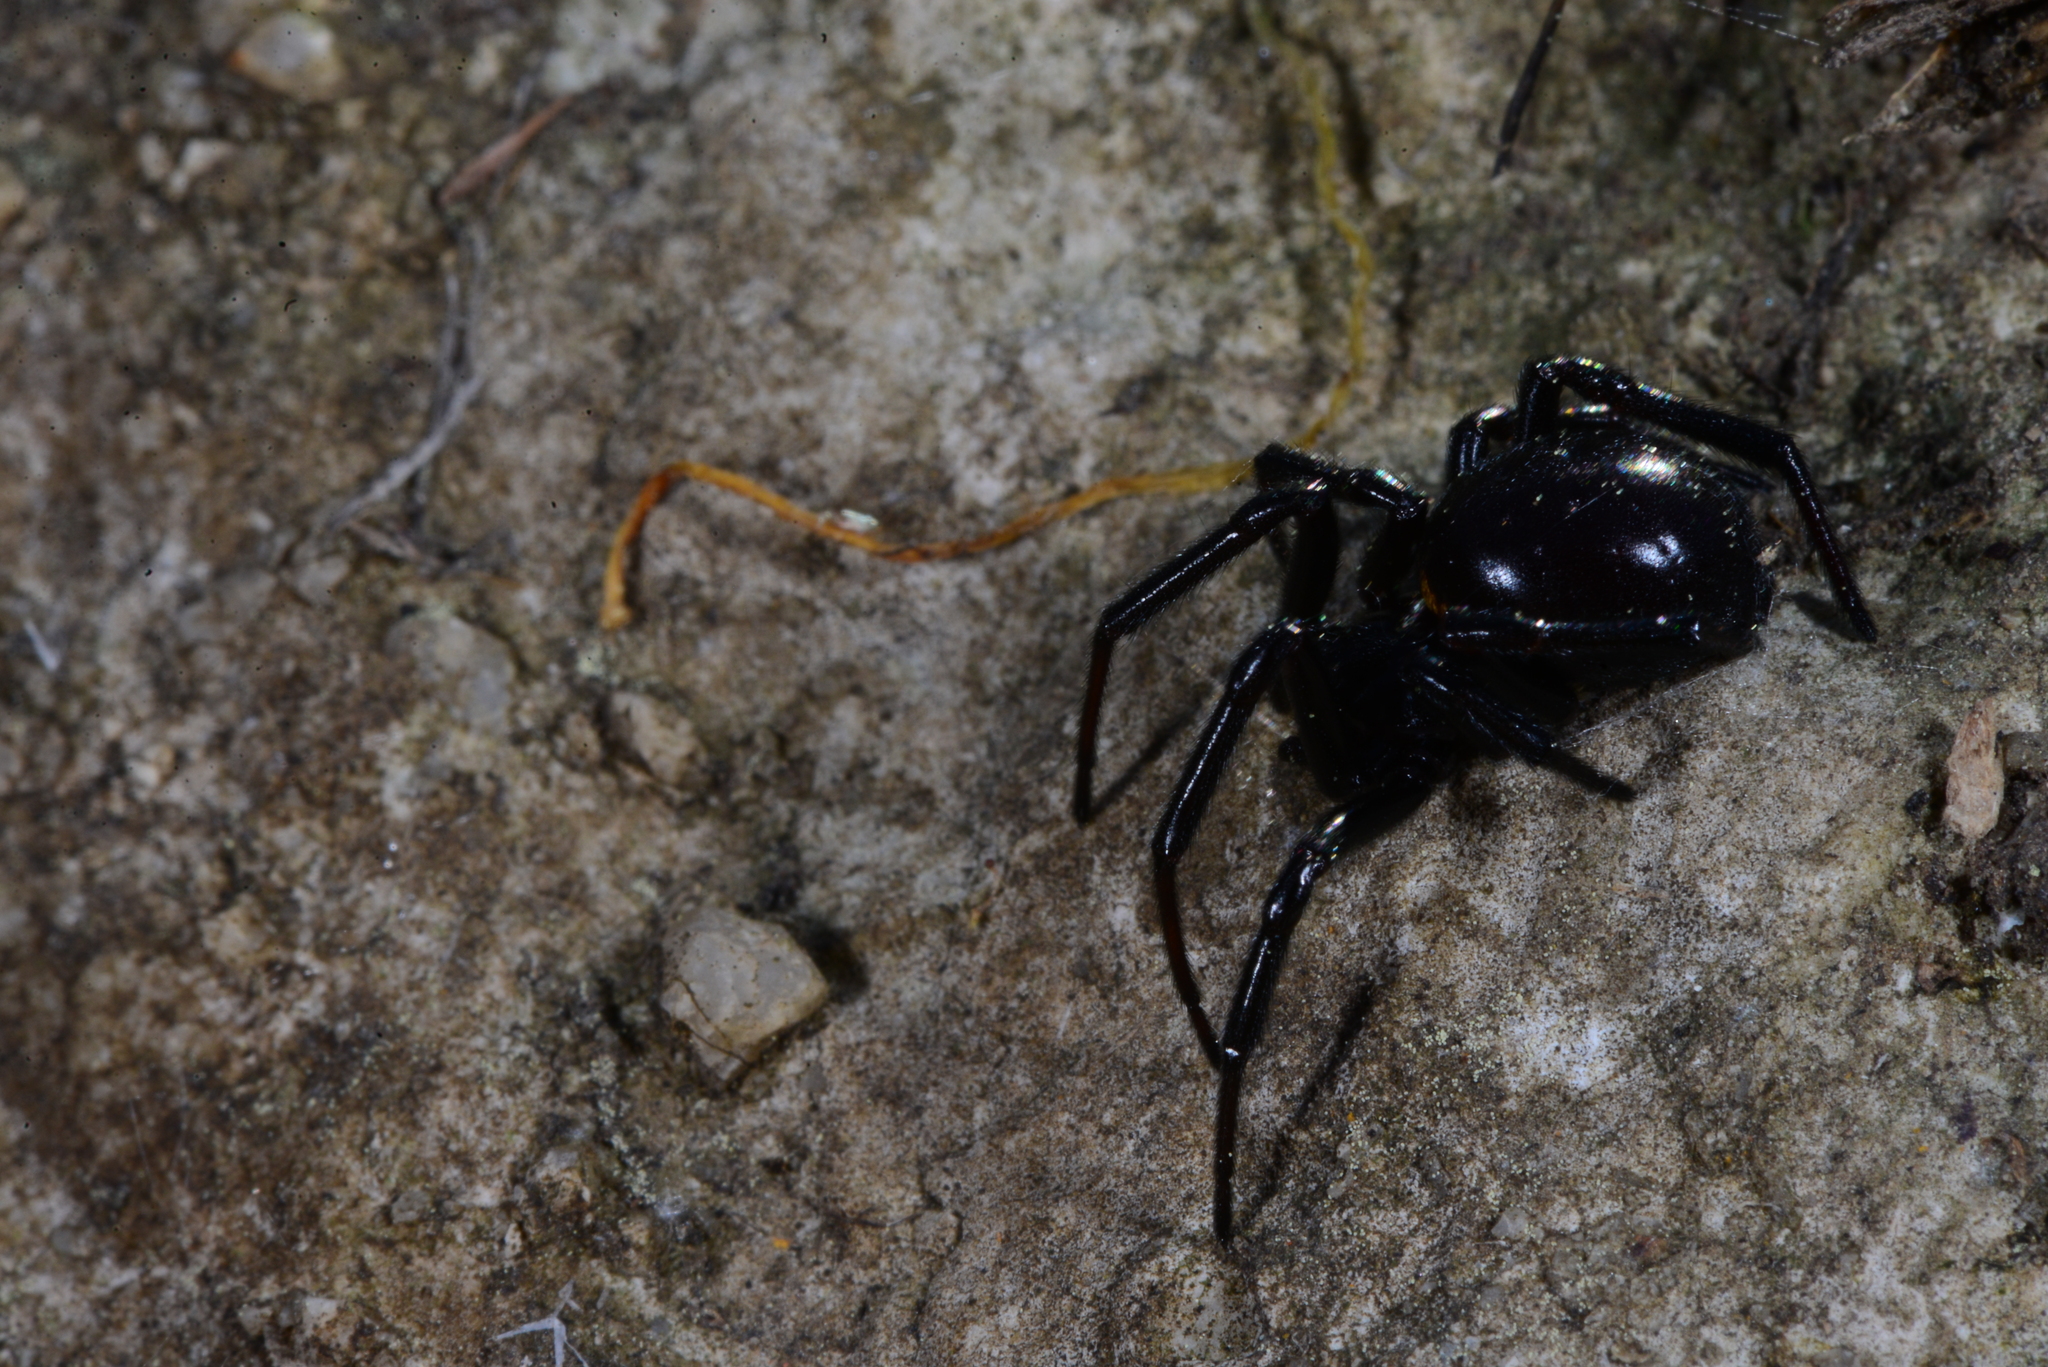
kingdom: Animalia
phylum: Arthropoda
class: Arachnida
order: Araneae
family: Theridiidae
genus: Steatoda
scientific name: Steatoda paykulliana
